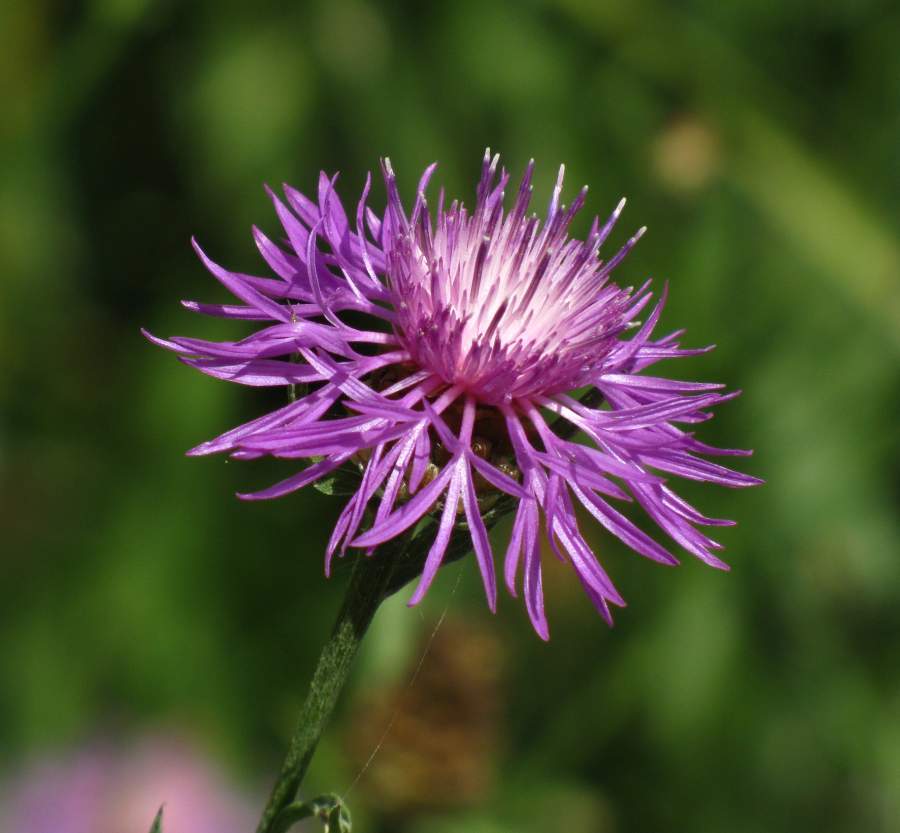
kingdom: Plantae
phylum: Tracheophyta
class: Magnoliopsida
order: Asterales
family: Asteraceae
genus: Centaurea
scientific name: Centaurea jacea
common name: Brown knapweed
